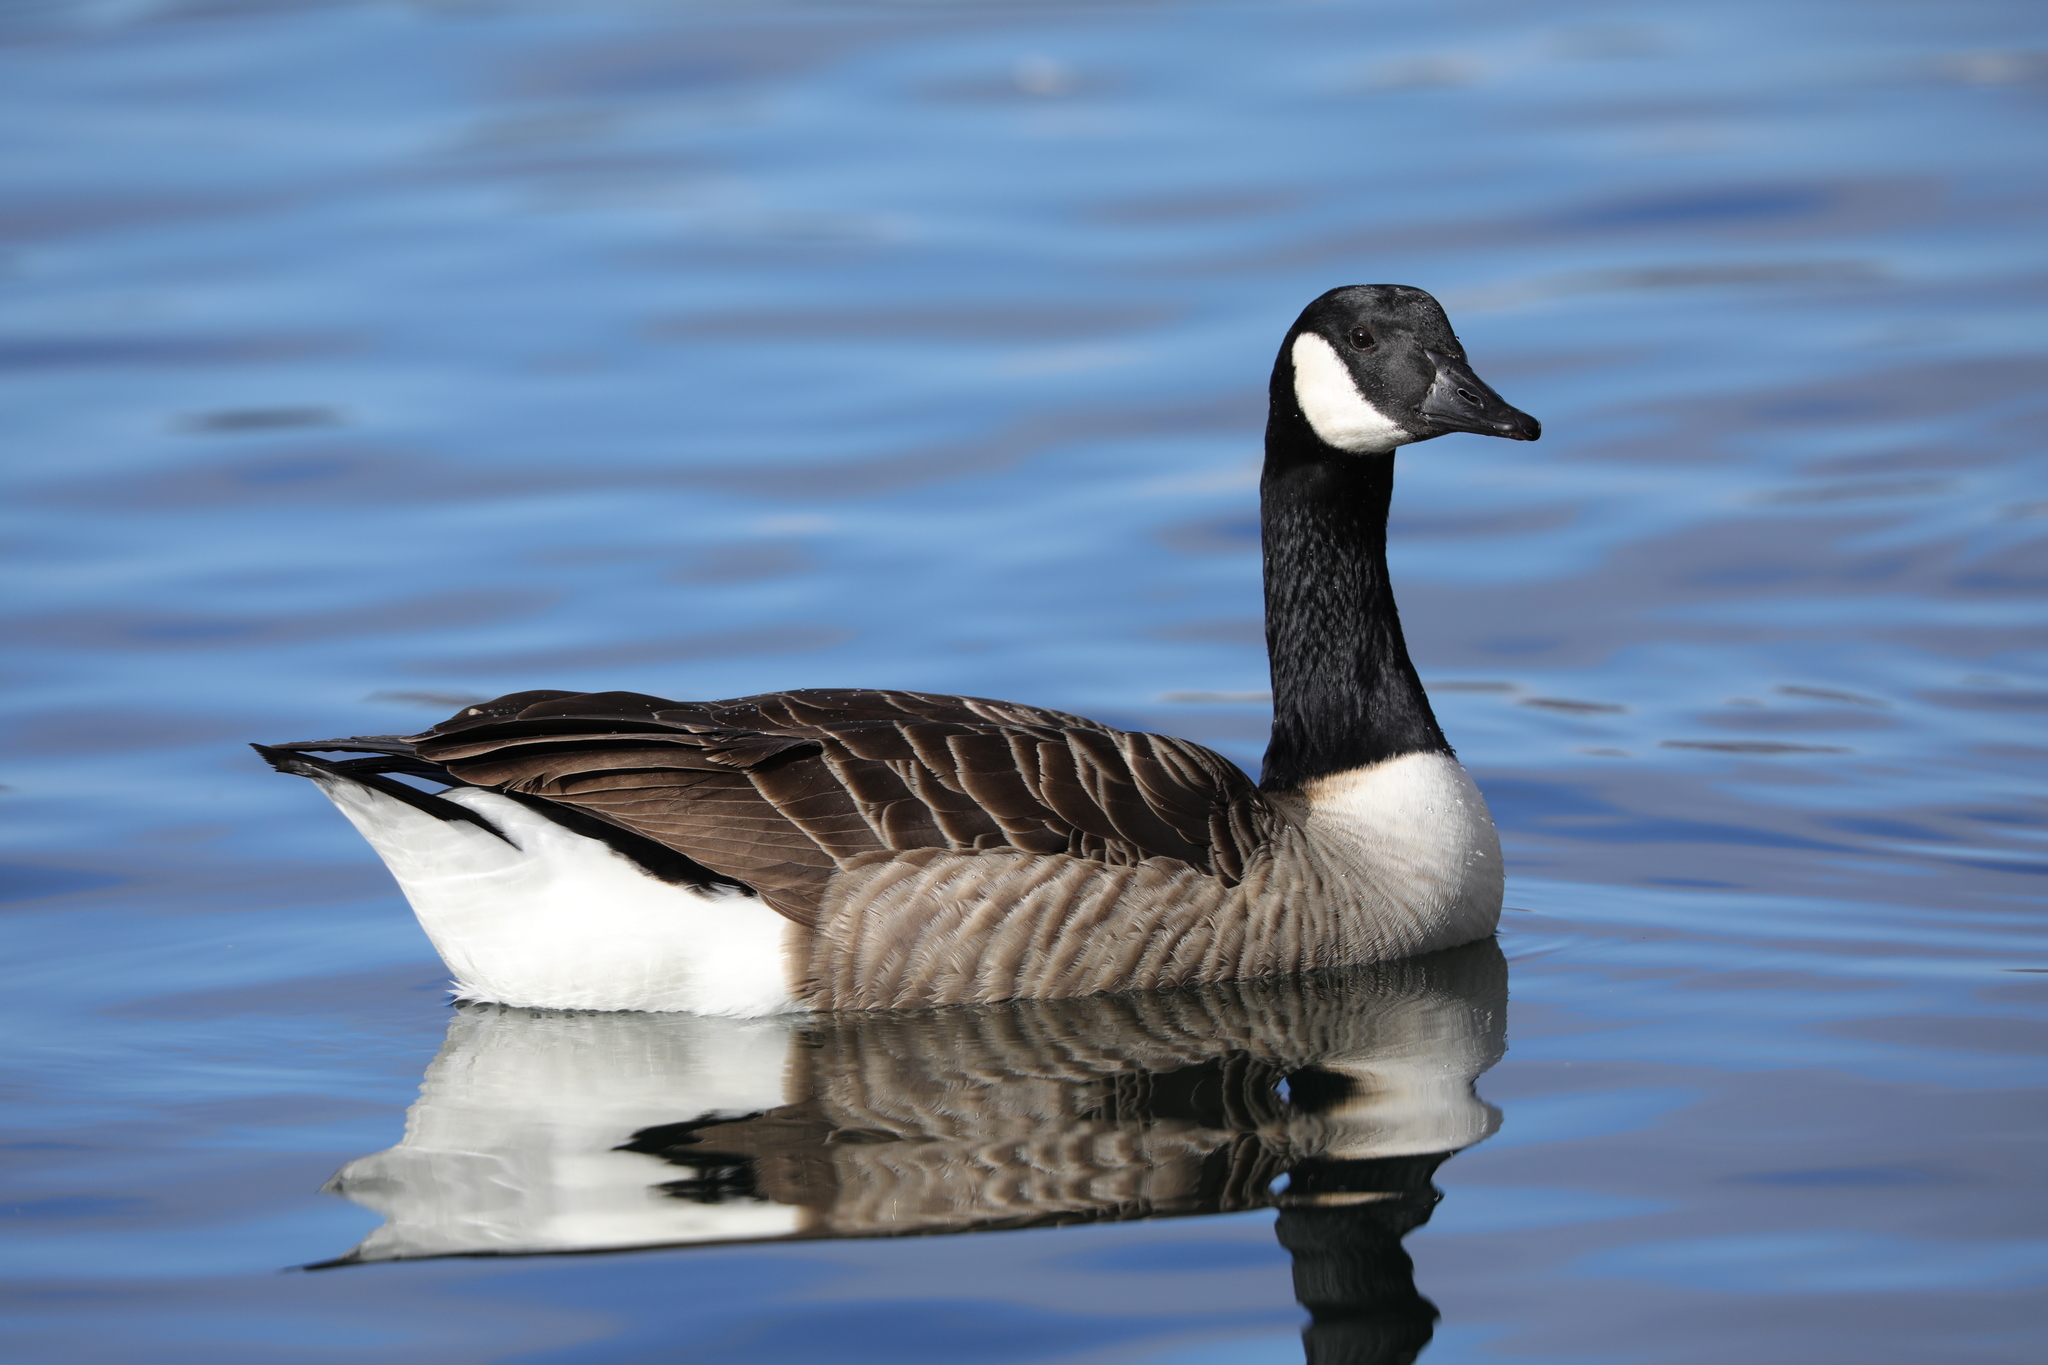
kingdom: Animalia
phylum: Chordata
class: Aves
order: Anseriformes
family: Anatidae
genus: Branta
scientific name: Branta canadensis
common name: Canada goose
